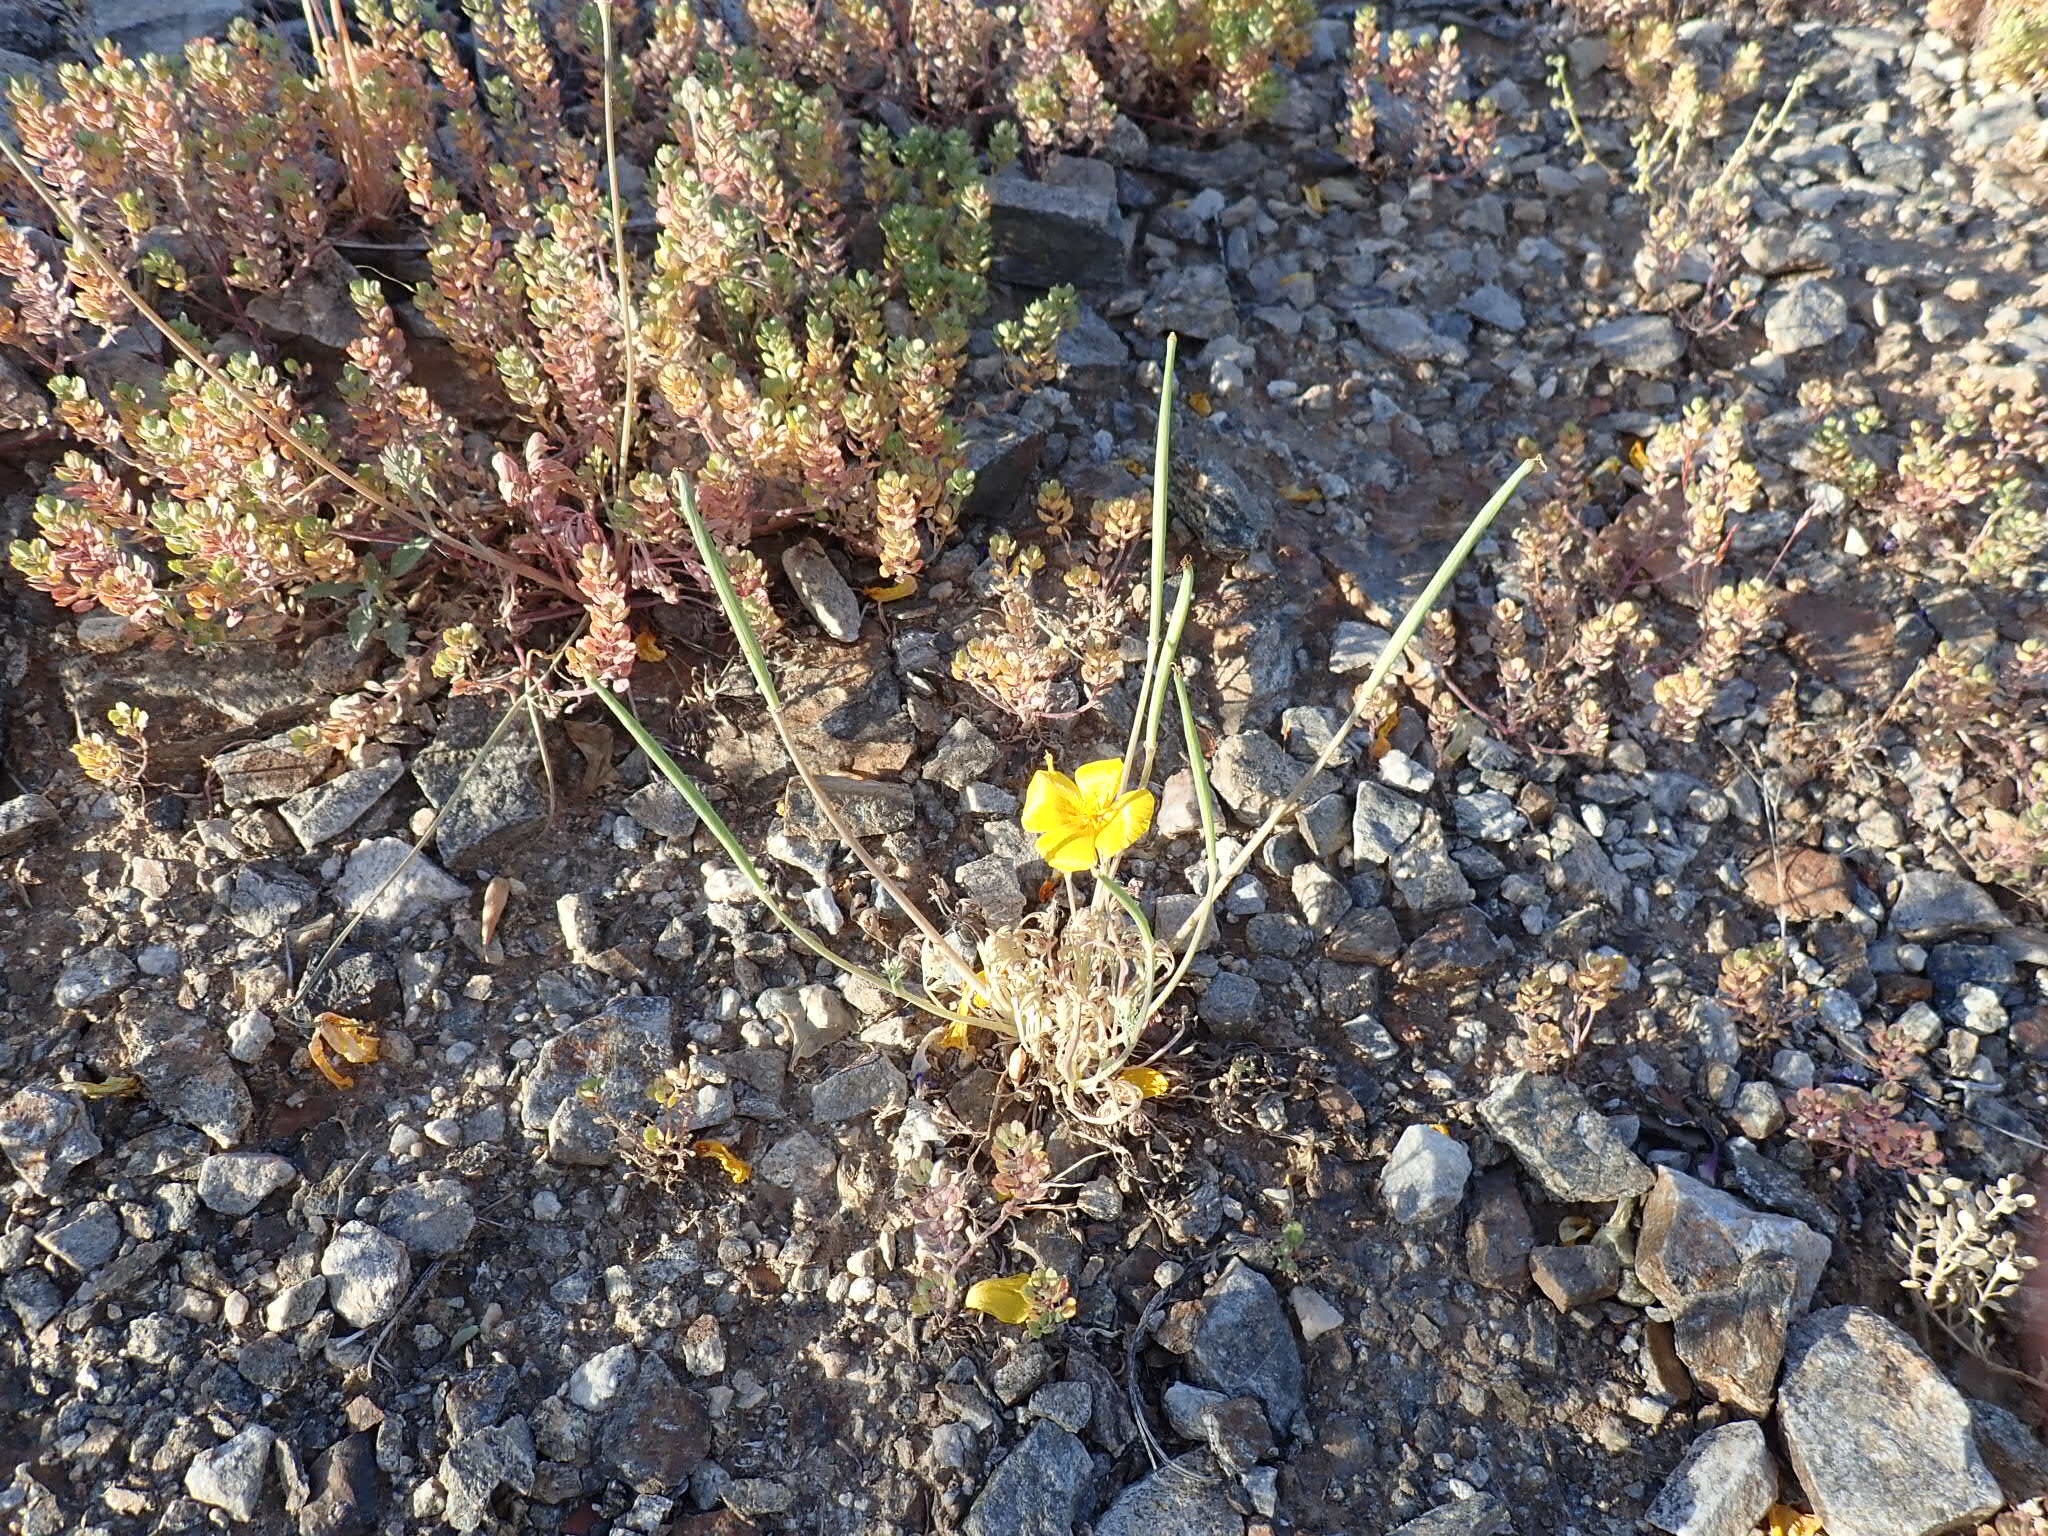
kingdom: Plantae
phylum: Tracheophyta
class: Magnoliopsida
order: Ranunculales
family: Papaveraceae
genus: Eschscholzia
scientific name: Eschscholzia californica
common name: California poppy
